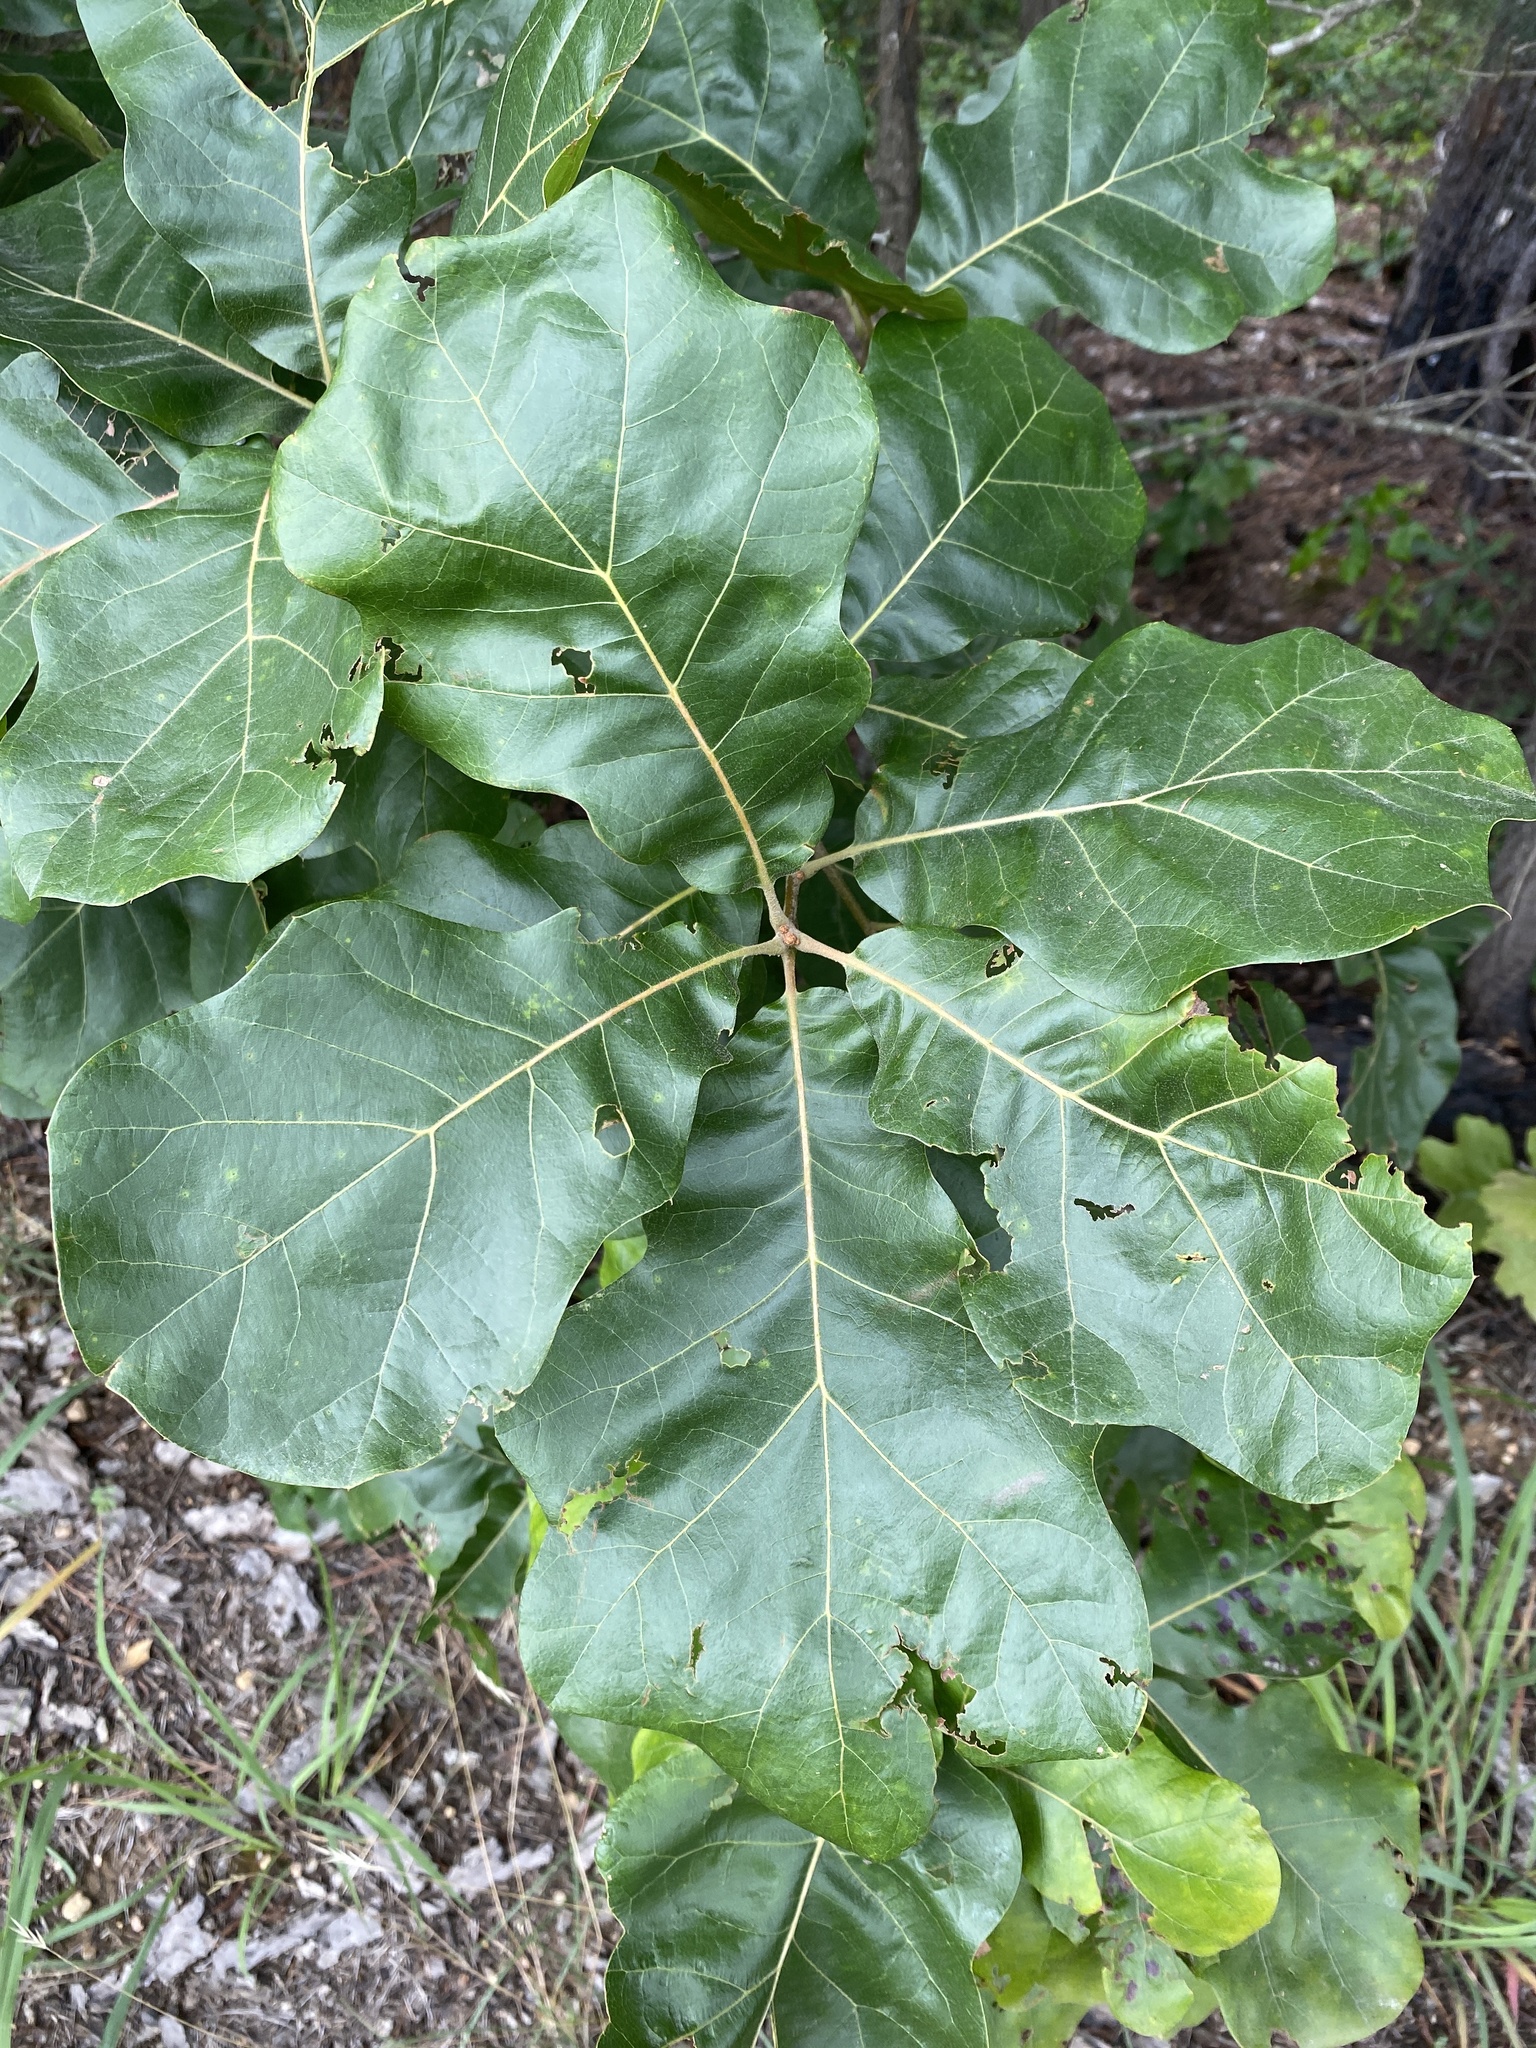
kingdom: Plantae
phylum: Tracheophyta
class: Magnoliopsida
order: Fagales
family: Fagaceae
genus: Quercus
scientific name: Quercus marilandica
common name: Blackjack oak
